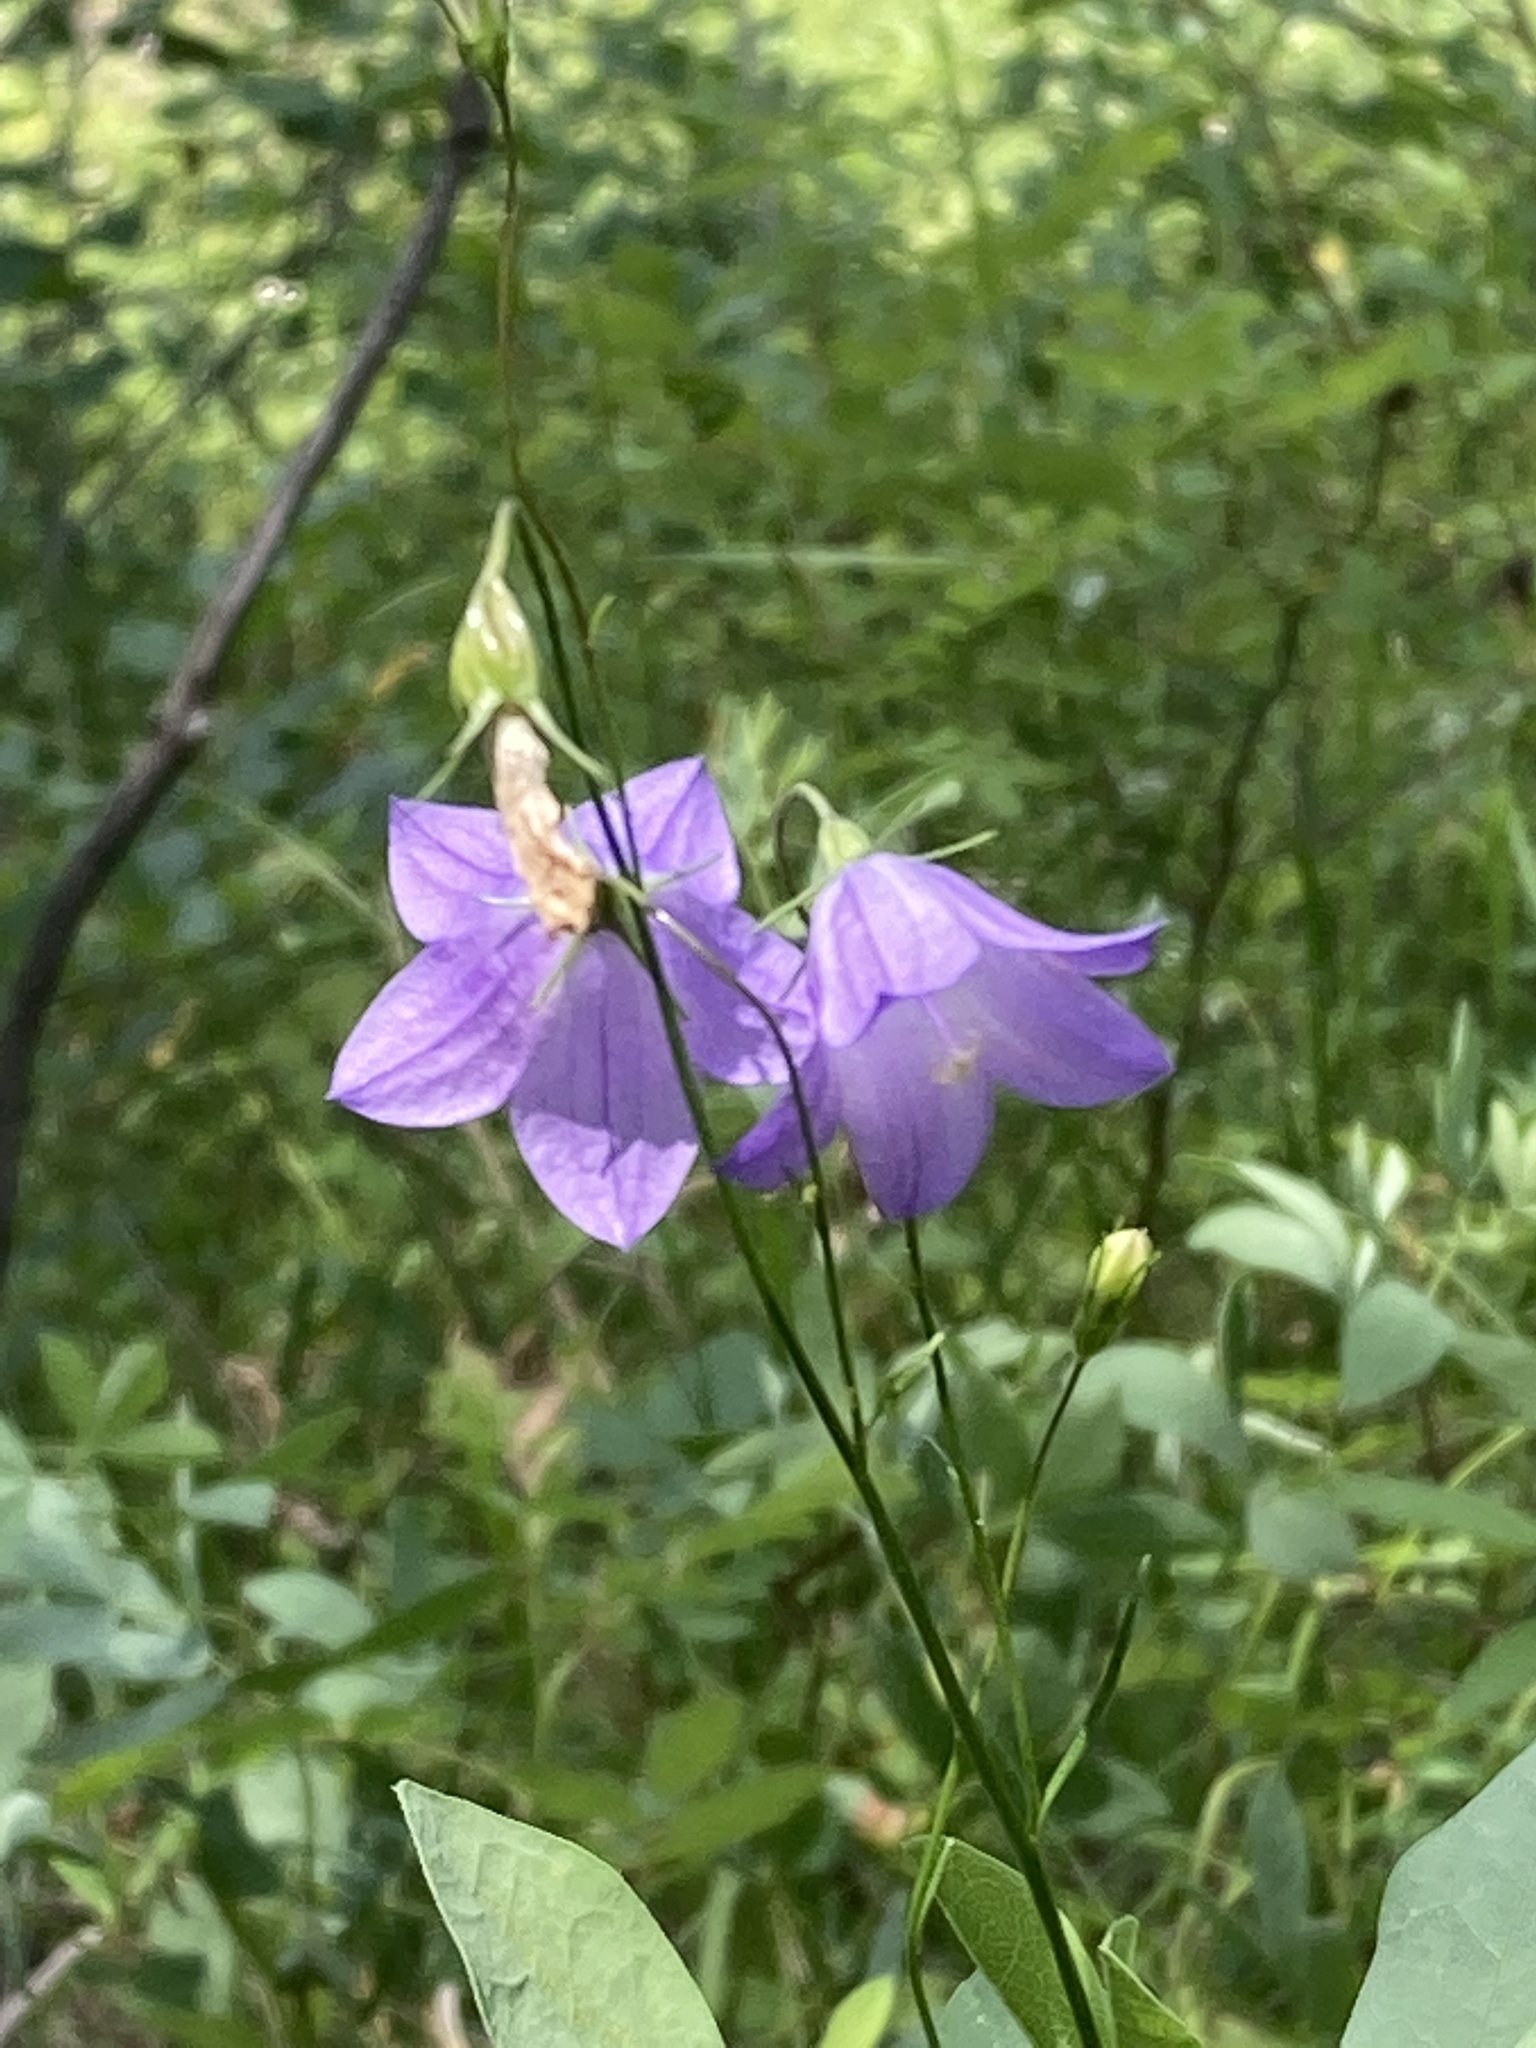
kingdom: Plantae
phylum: Tracheophyta
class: Magnoliopsida
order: Asterales
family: Campanulaceae
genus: Campanula
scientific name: Campanula alaskana
